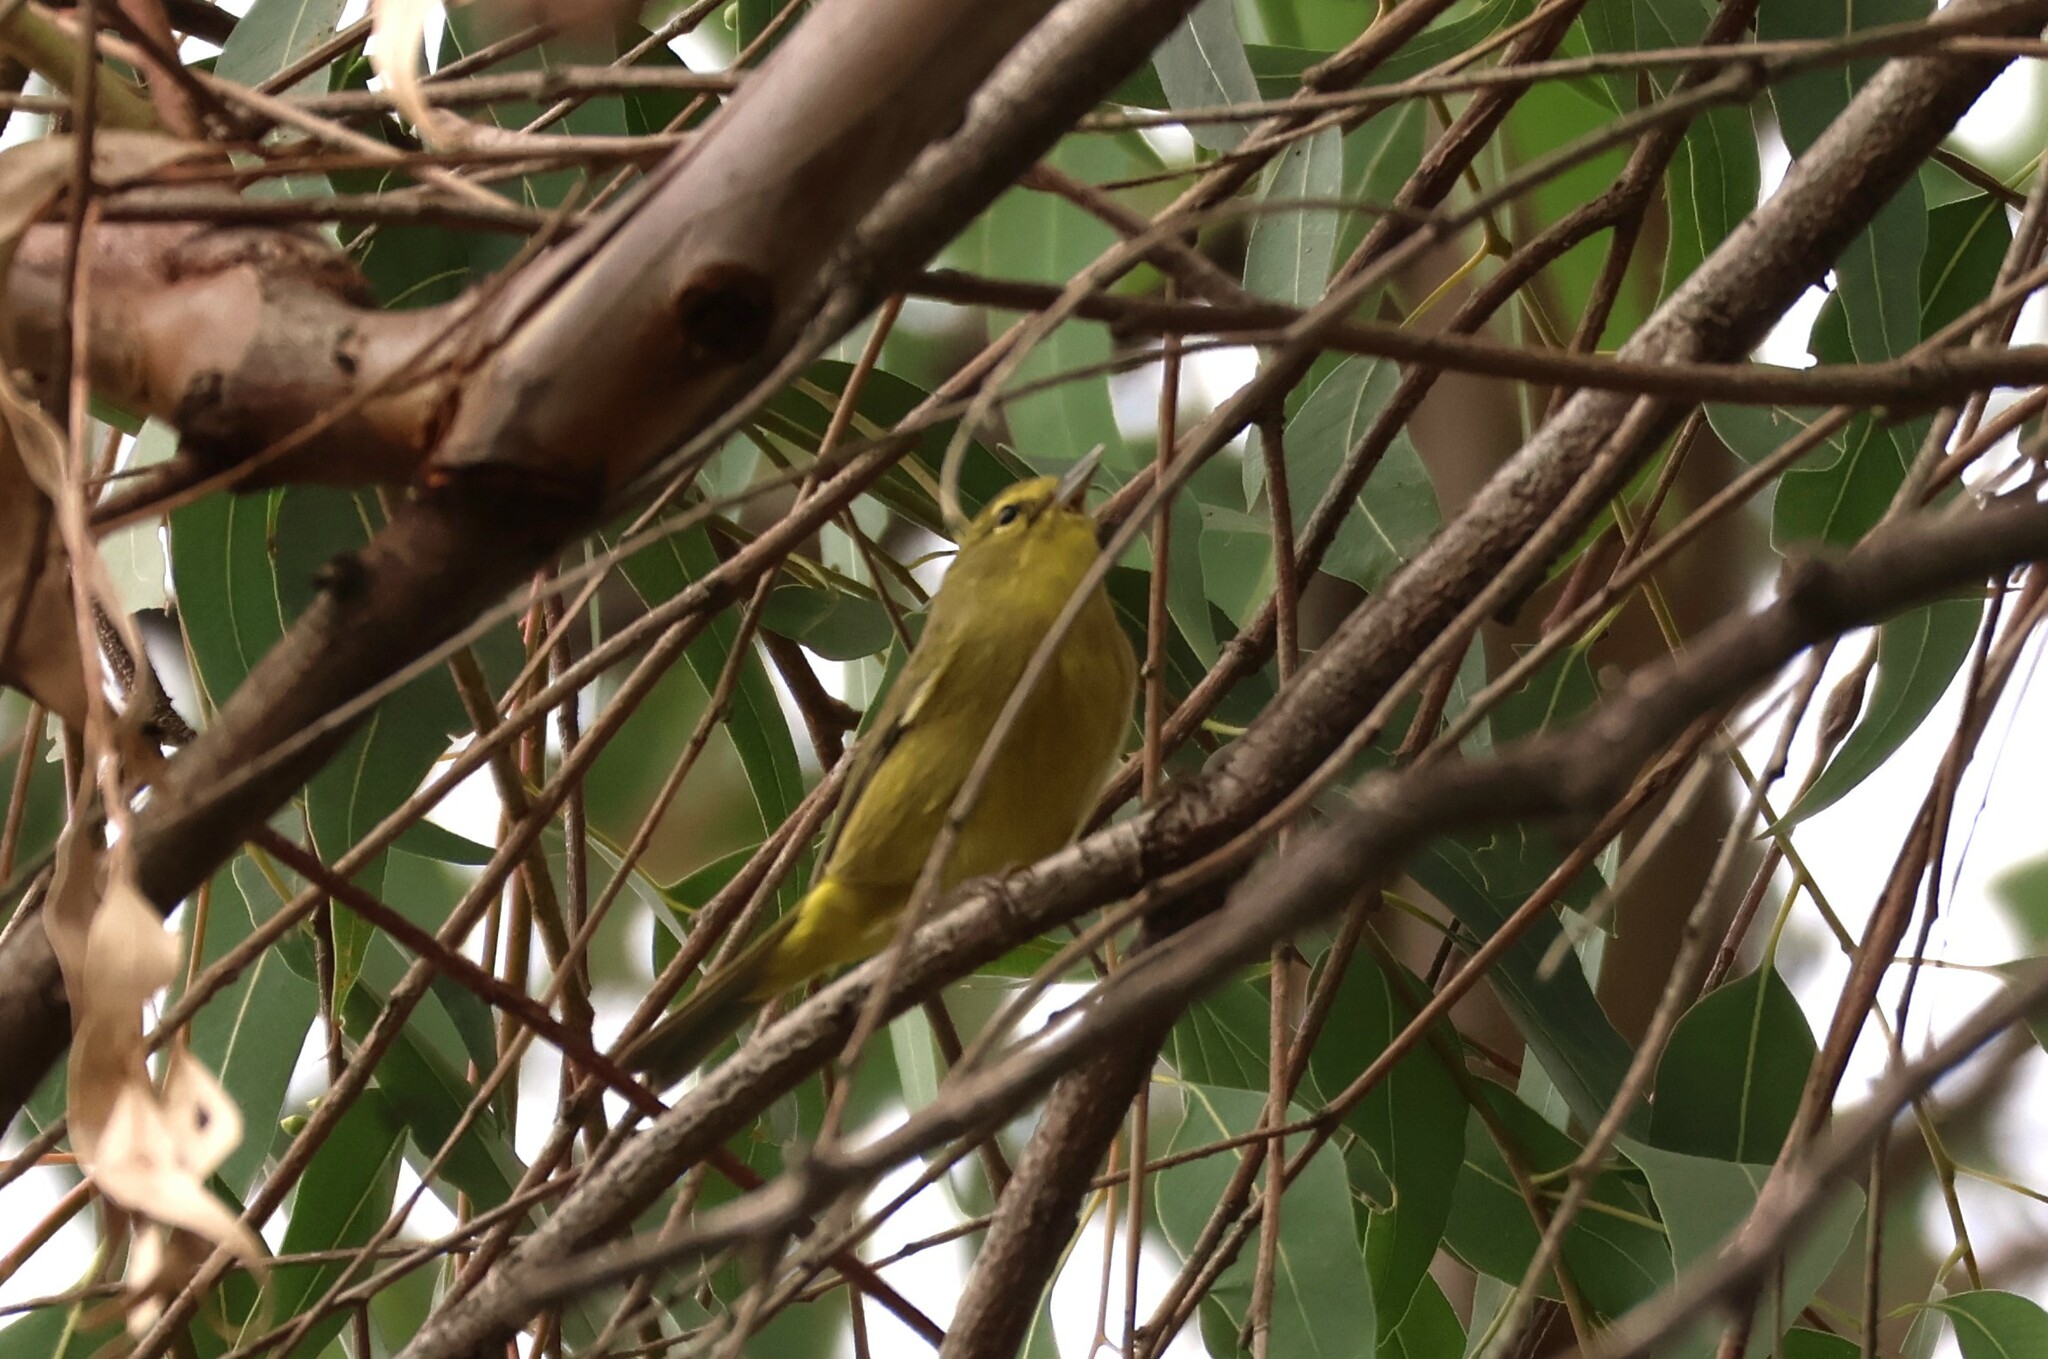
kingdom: Animalia
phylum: Chordata
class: Aves
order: Passeriformes
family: Parulidae
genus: Leiothlypis
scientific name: Leiothlypis celata
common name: Orange-crowned warbler
